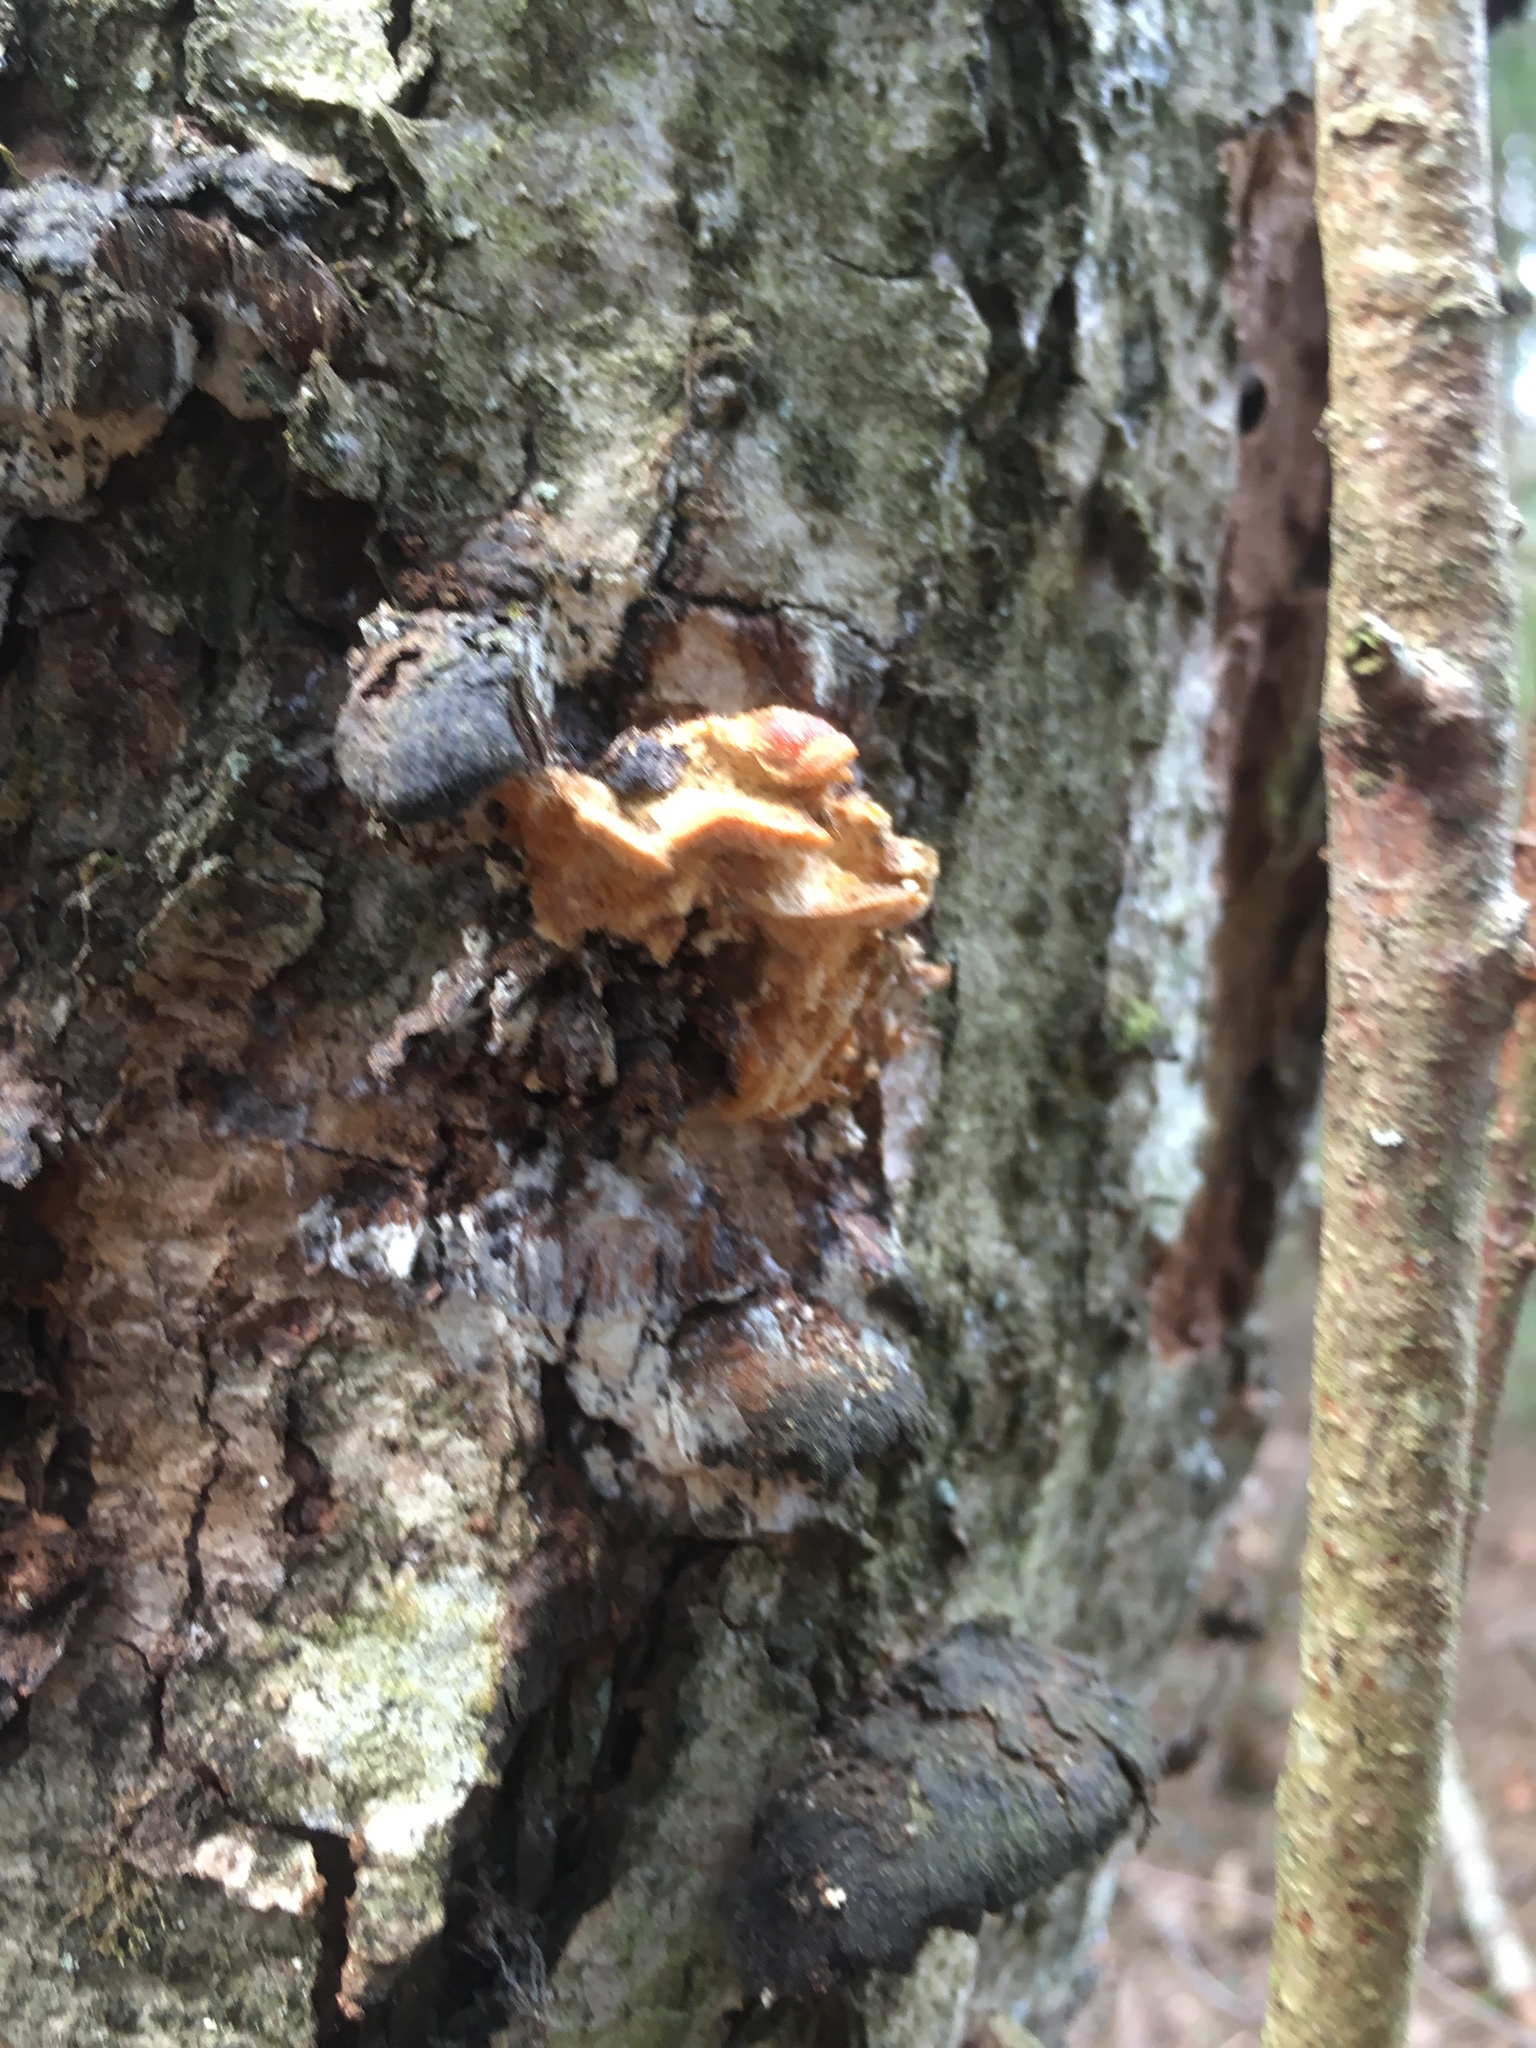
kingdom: Fungi
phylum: Basidiomycota
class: Agaricomycetes
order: Polyporales
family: Steccherinaceae
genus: Antrodiella
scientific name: Antrodiella serpula
